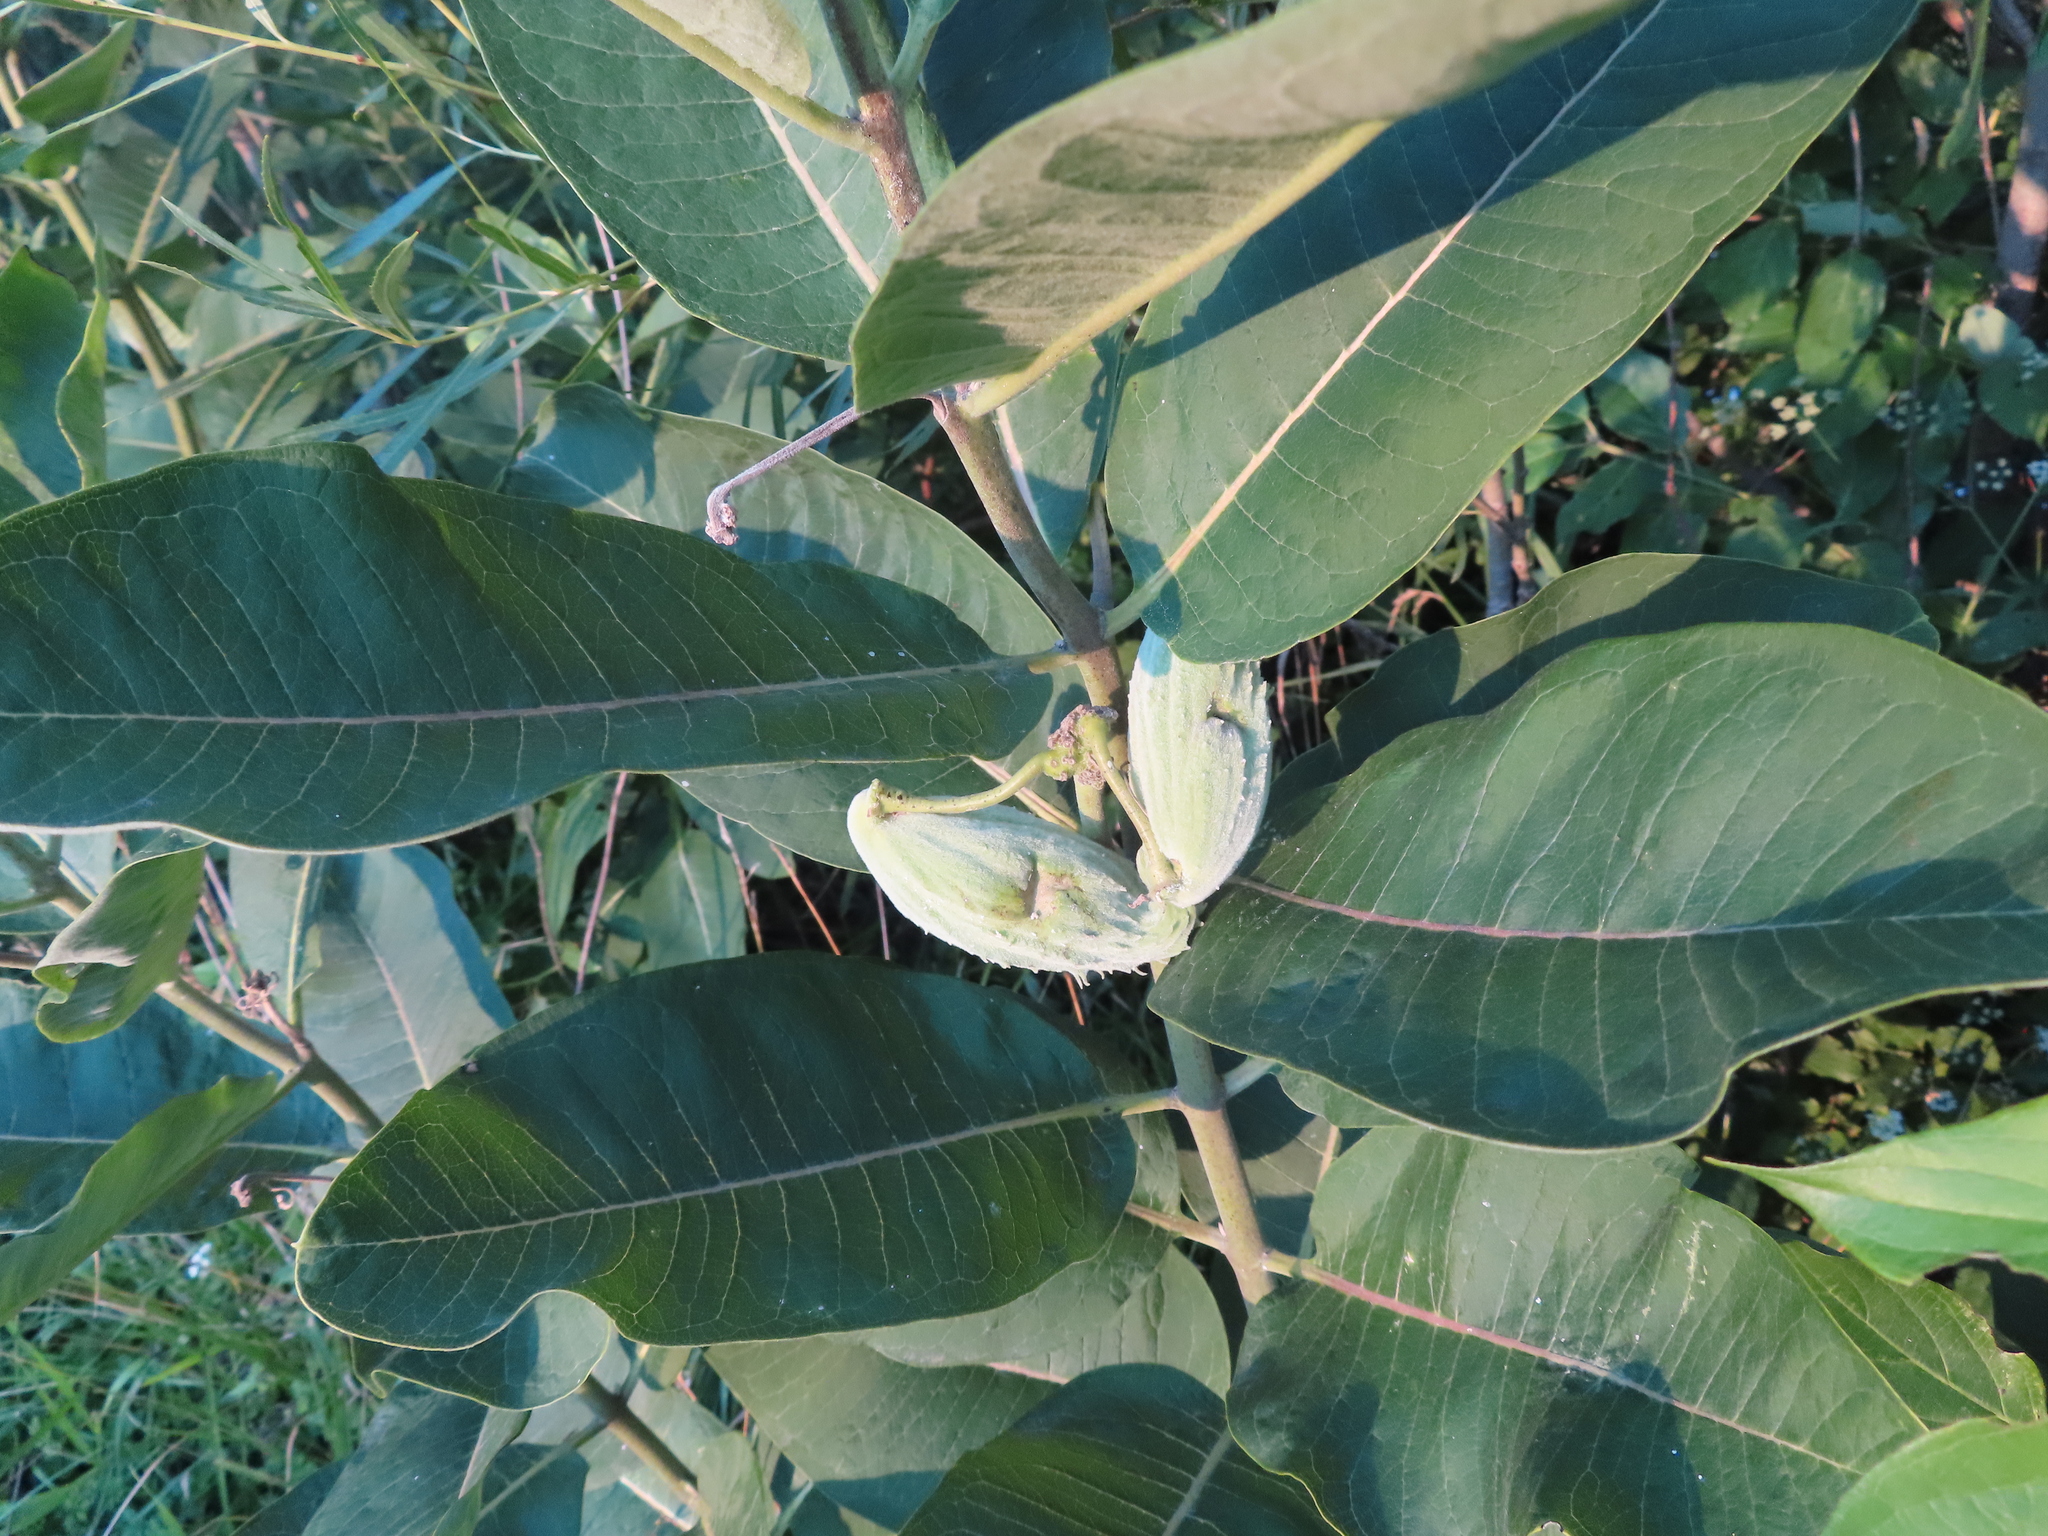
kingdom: Plantae
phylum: Tracheophyta
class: Magnoliopsida
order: Gentianales
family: Apocynaceae
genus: Asclepias
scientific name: Asclepias syriaca
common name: Common milkweed
